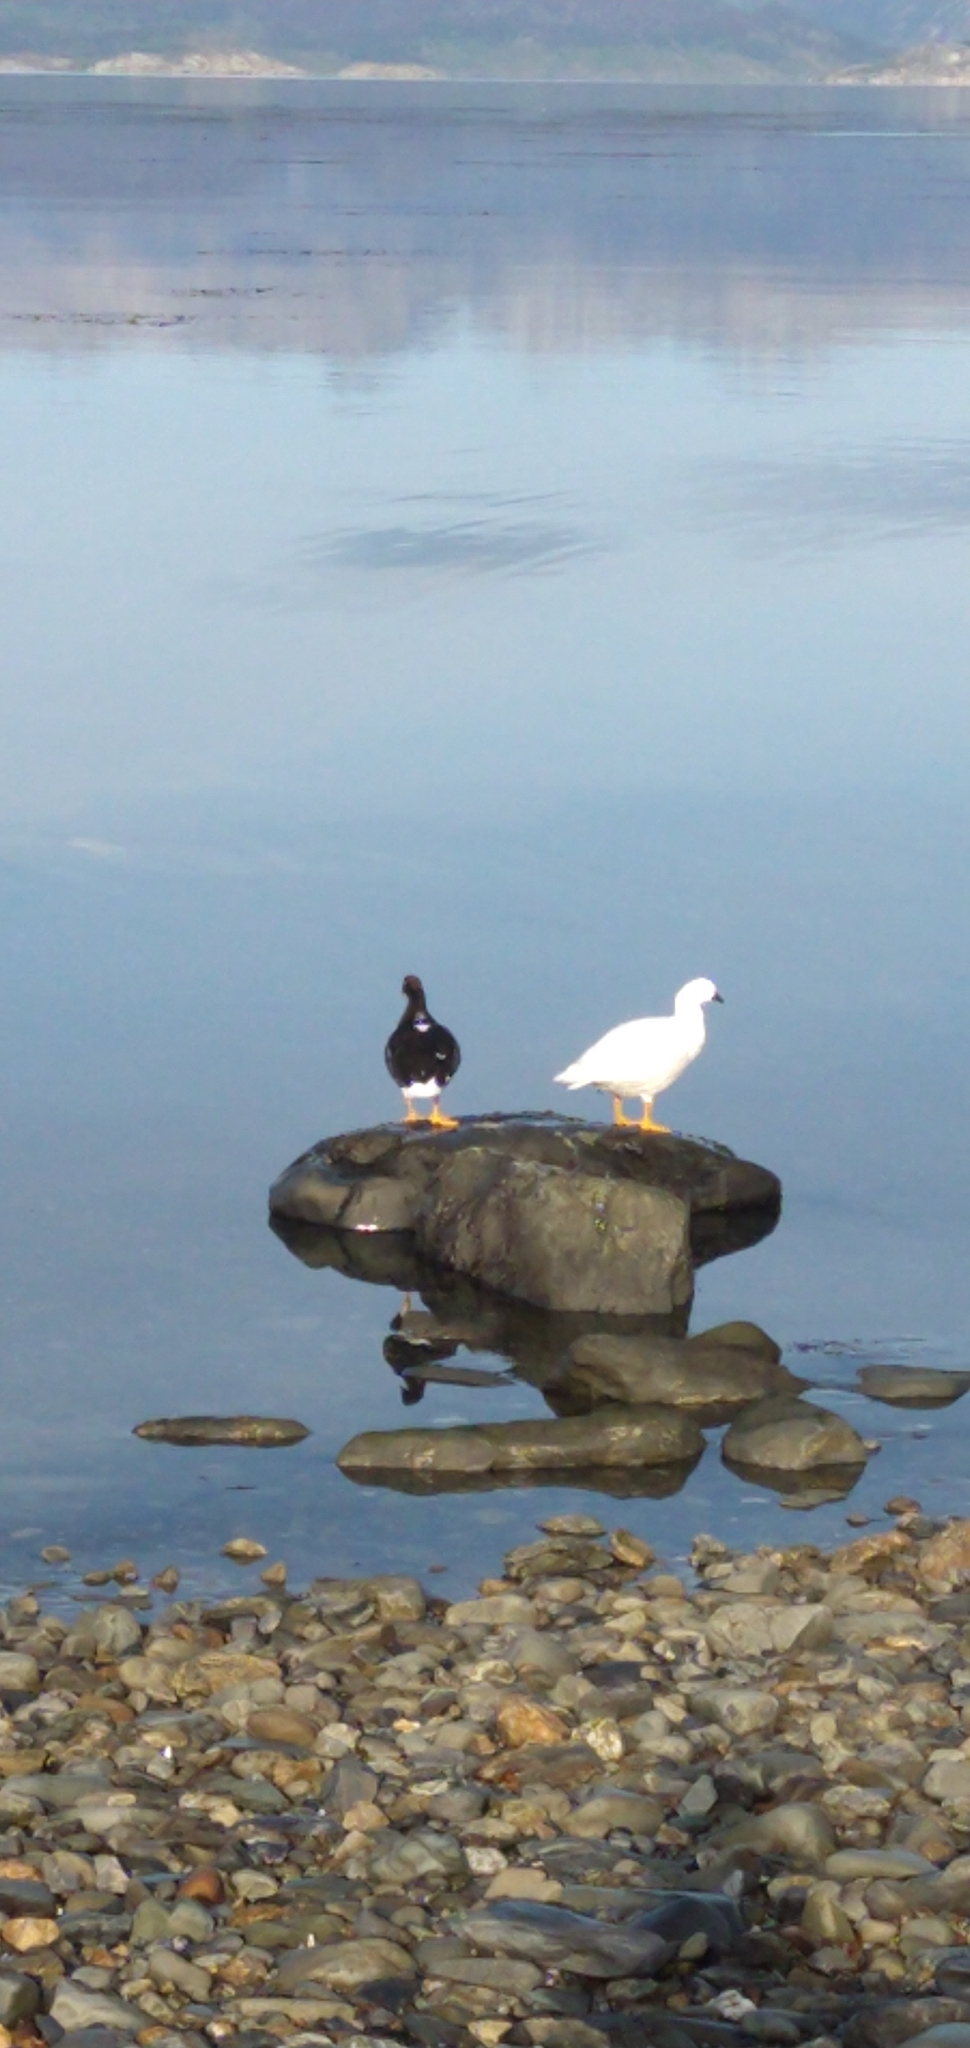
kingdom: Animalia
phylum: Chordata
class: Aves
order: Anseriformes
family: Anatidae
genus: Chloephaga
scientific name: Chloephaga hybrida
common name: Kelp goose
